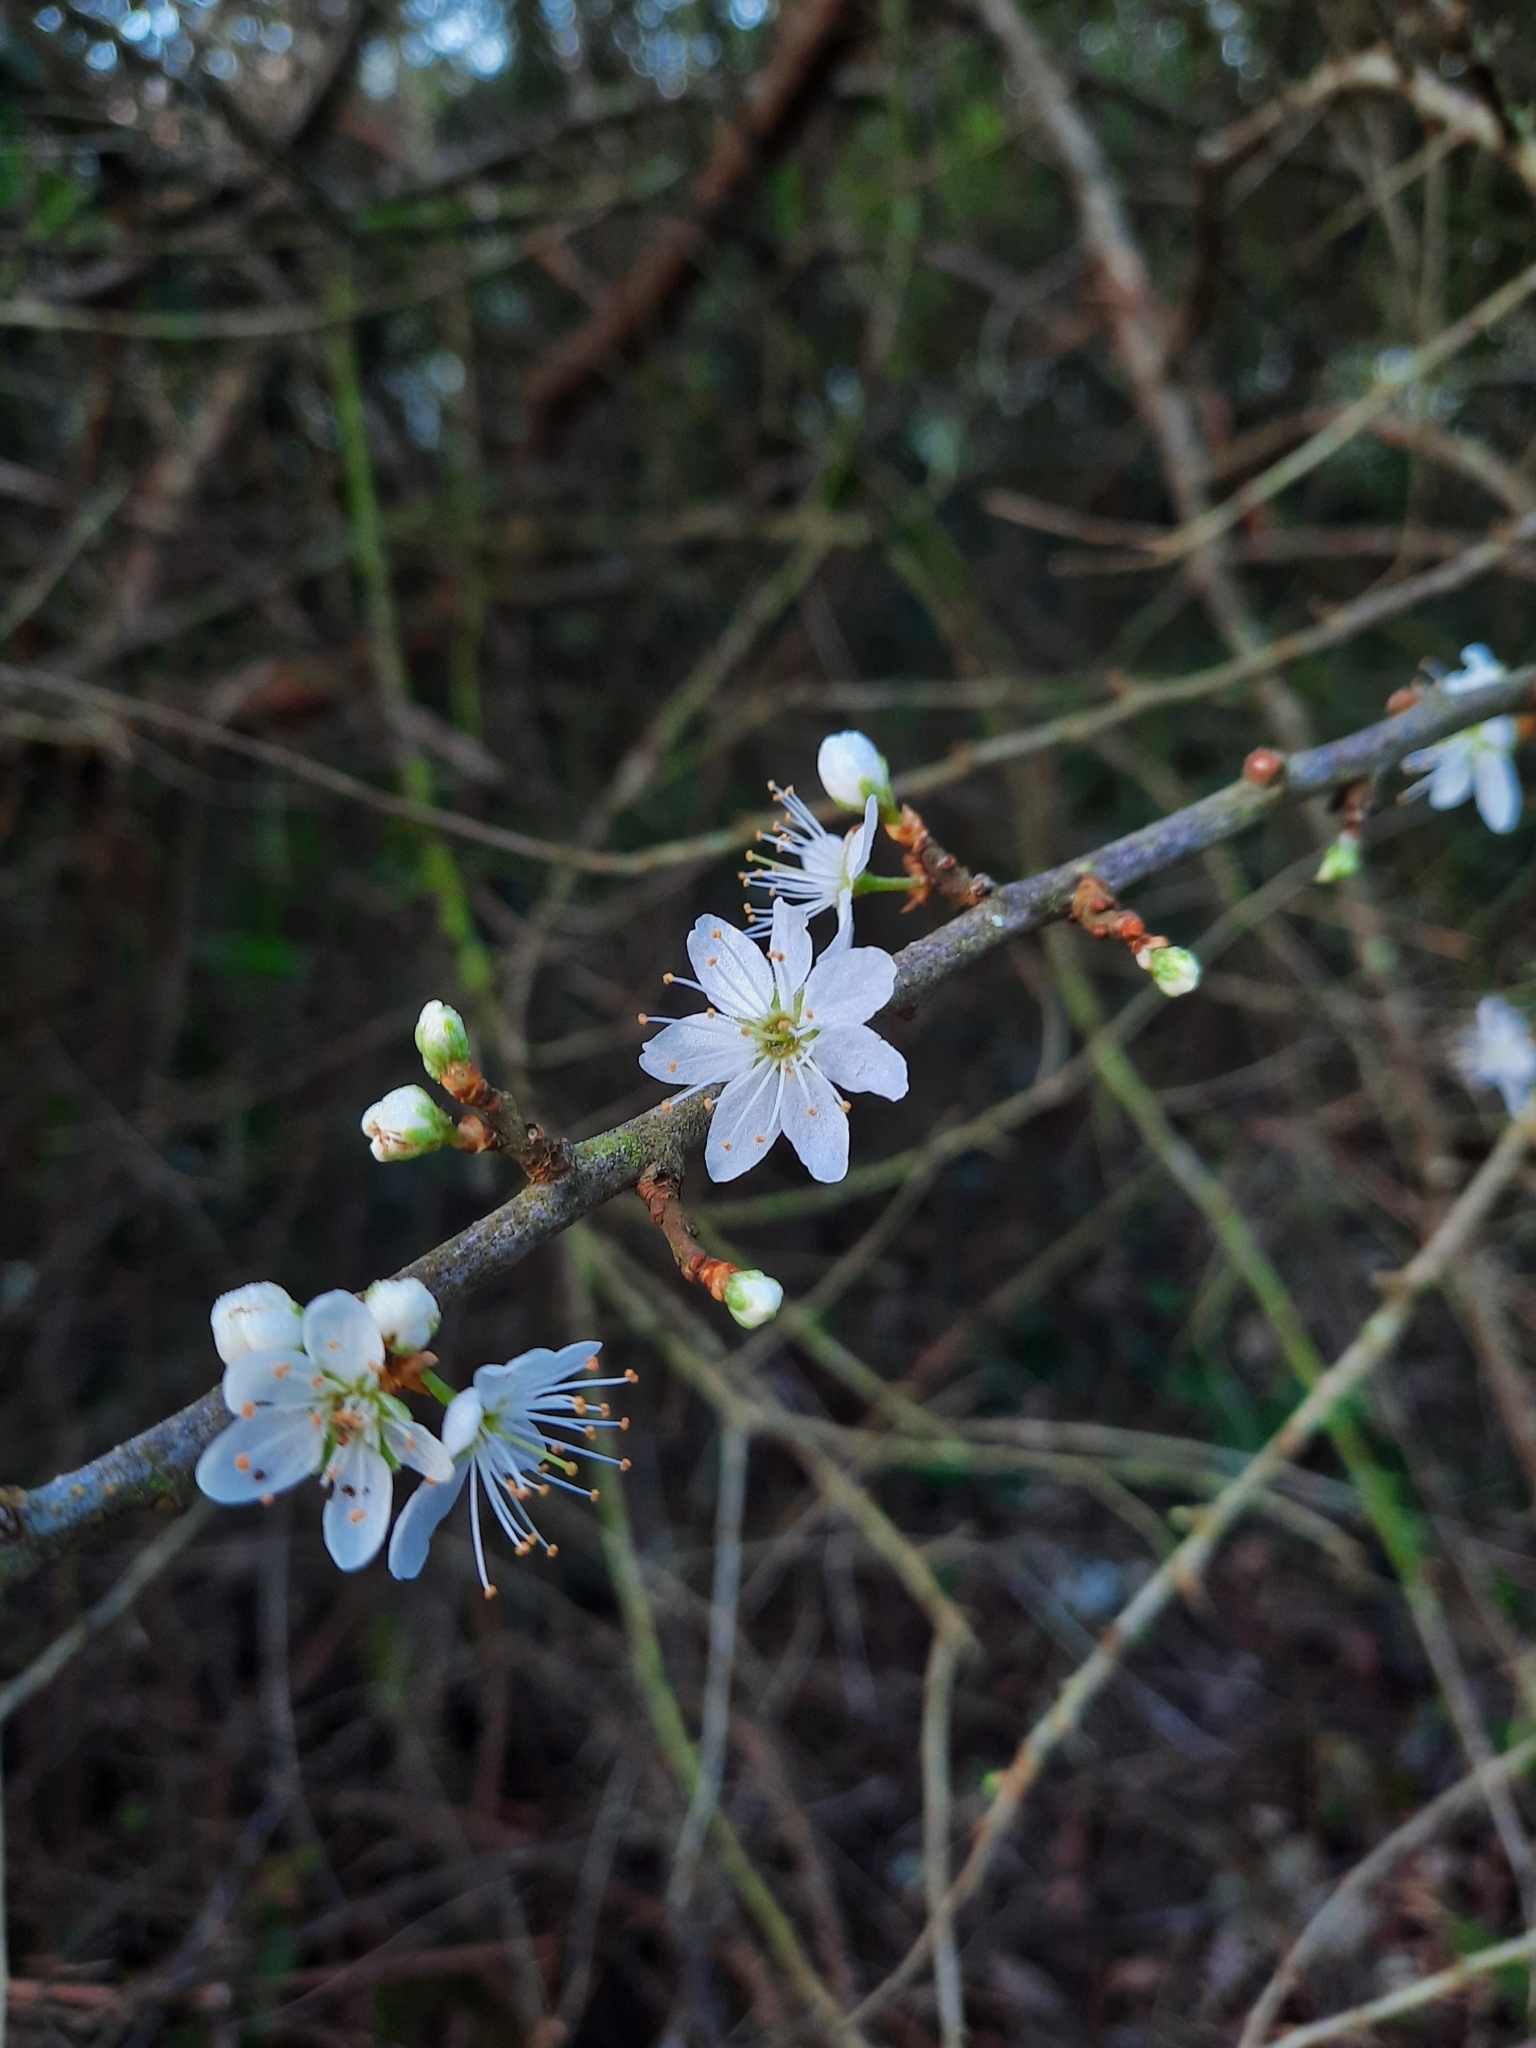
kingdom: Plantae
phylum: Tracheophyta
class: Magnoliopsida
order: Rosales
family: Rosaceae
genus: Prunus
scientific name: Prunus spinosa
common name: Blackthorn
